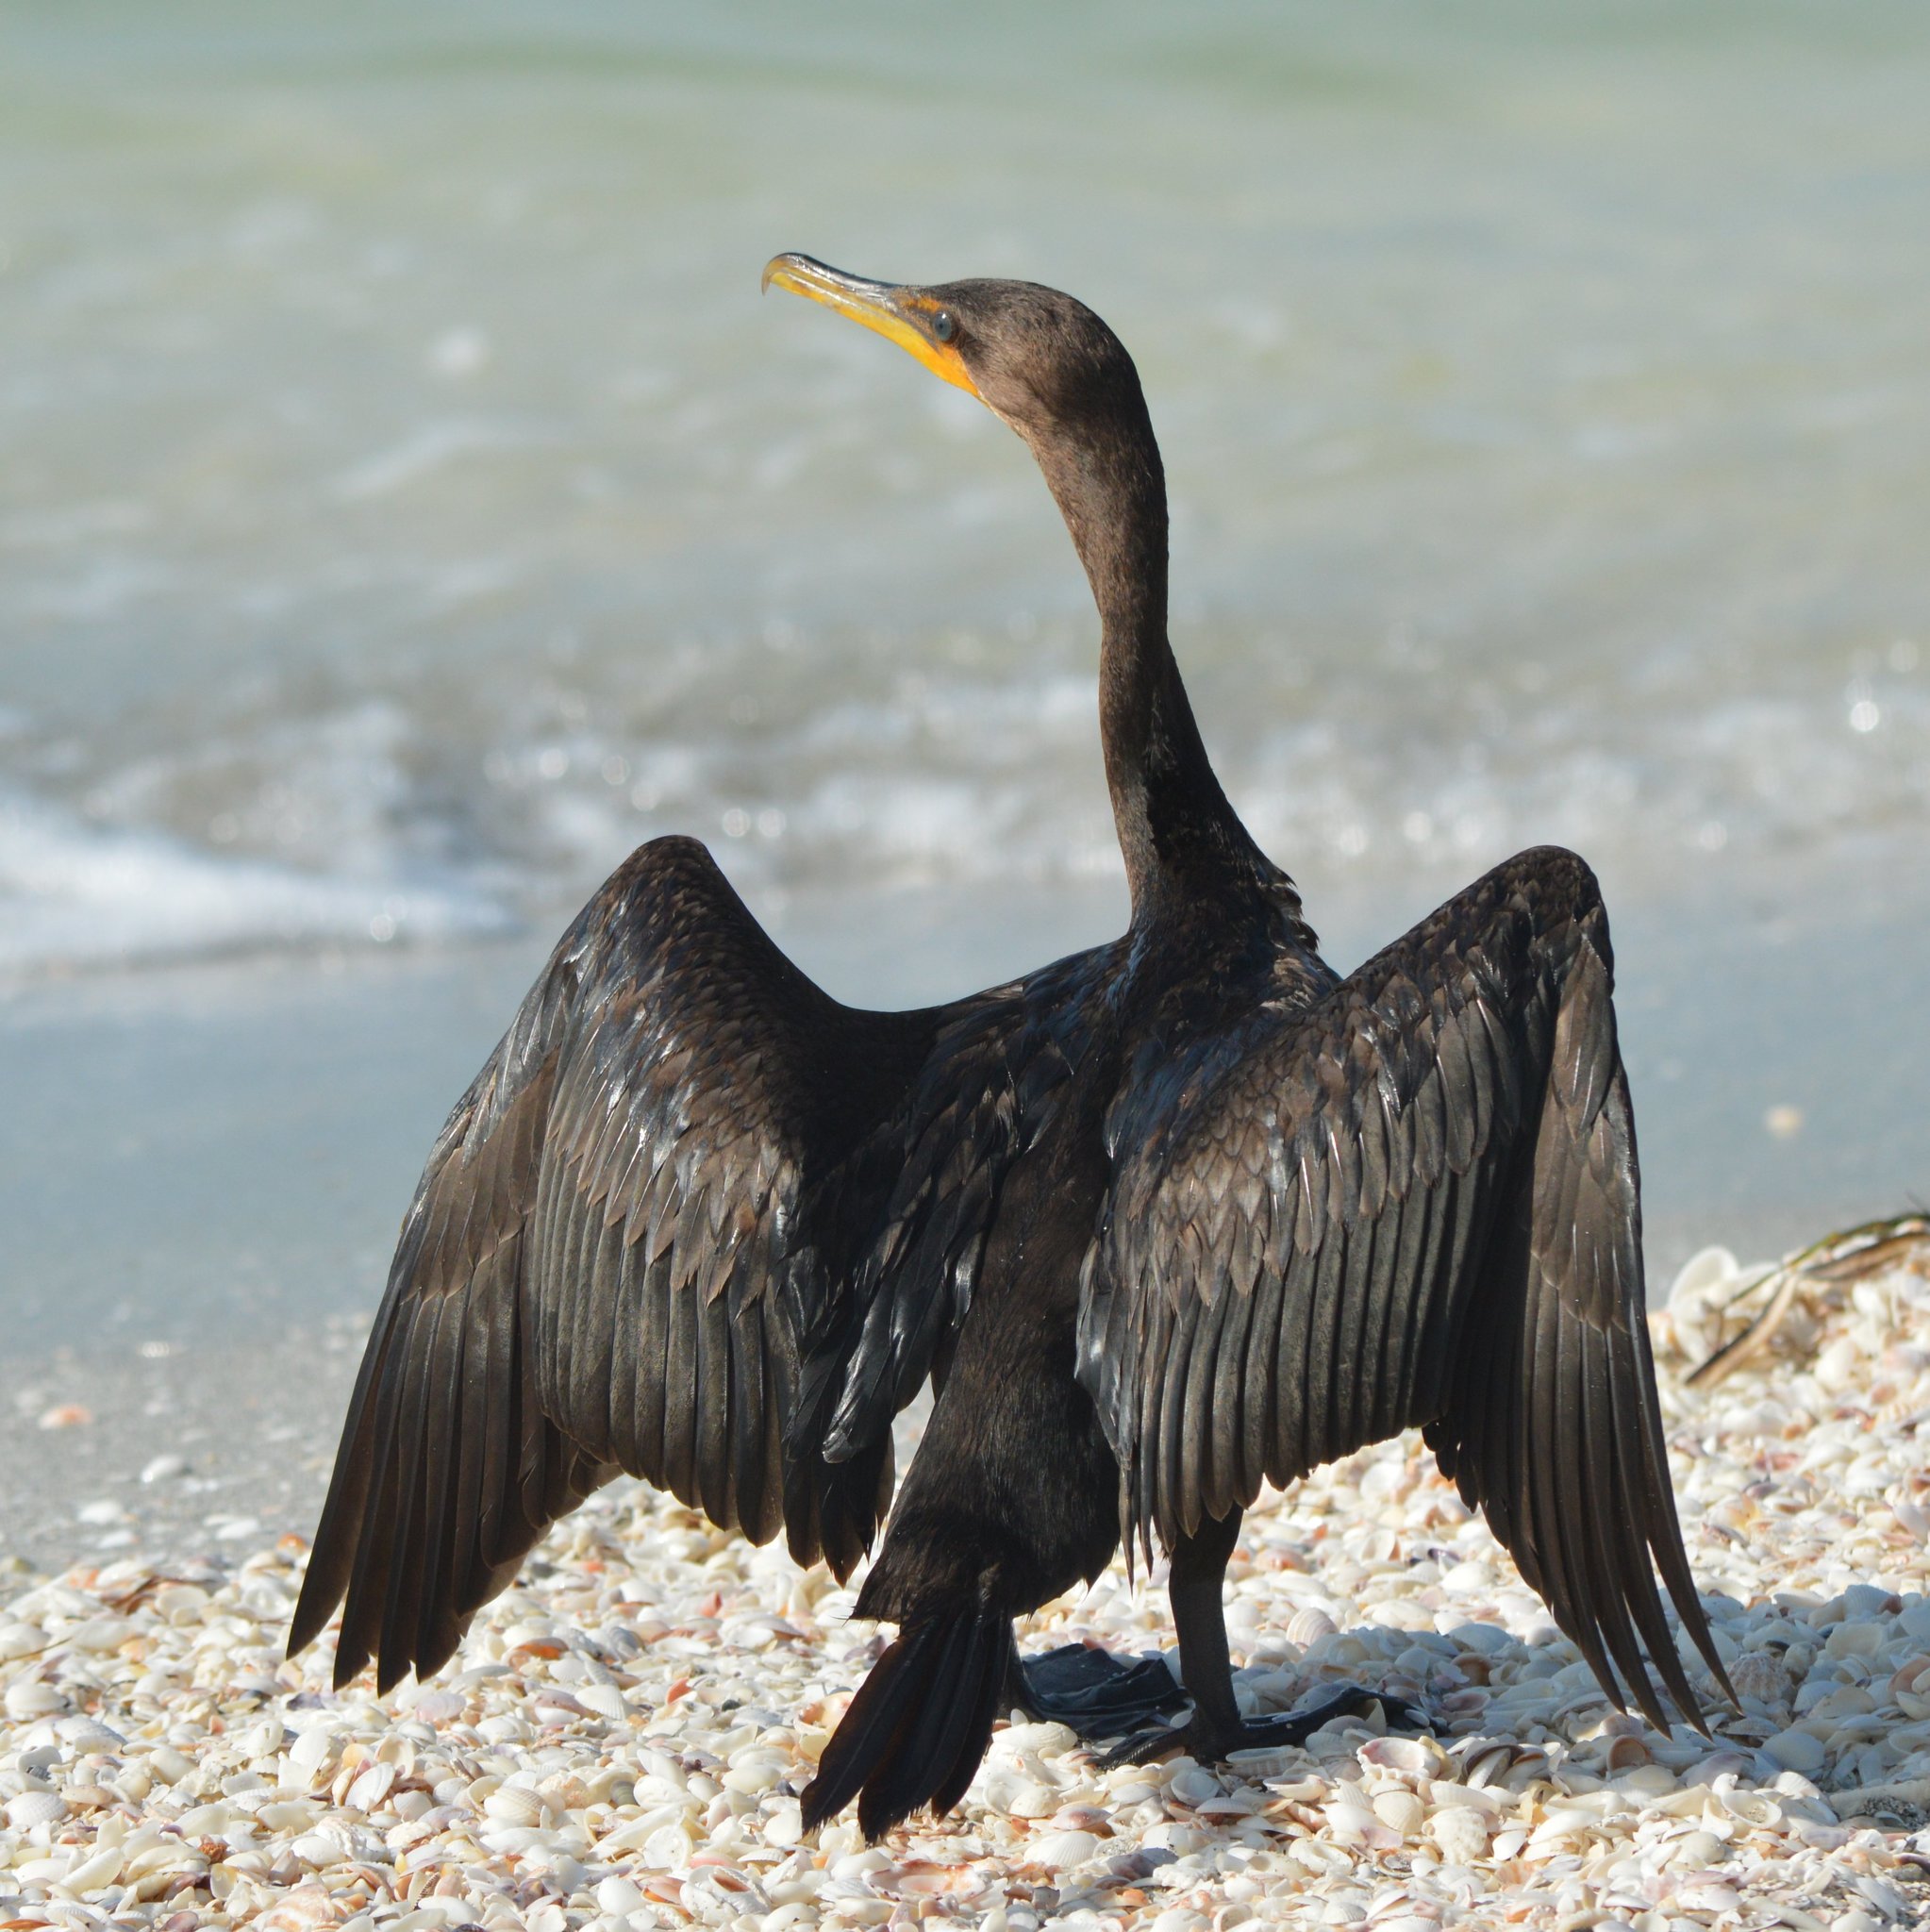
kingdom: Animalia
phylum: Chordata
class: Aves
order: Suliformes
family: Phalacrocoracidae
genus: Phalacrocorax
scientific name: Phalacrocorax auritus
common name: Double-crested cormorant
